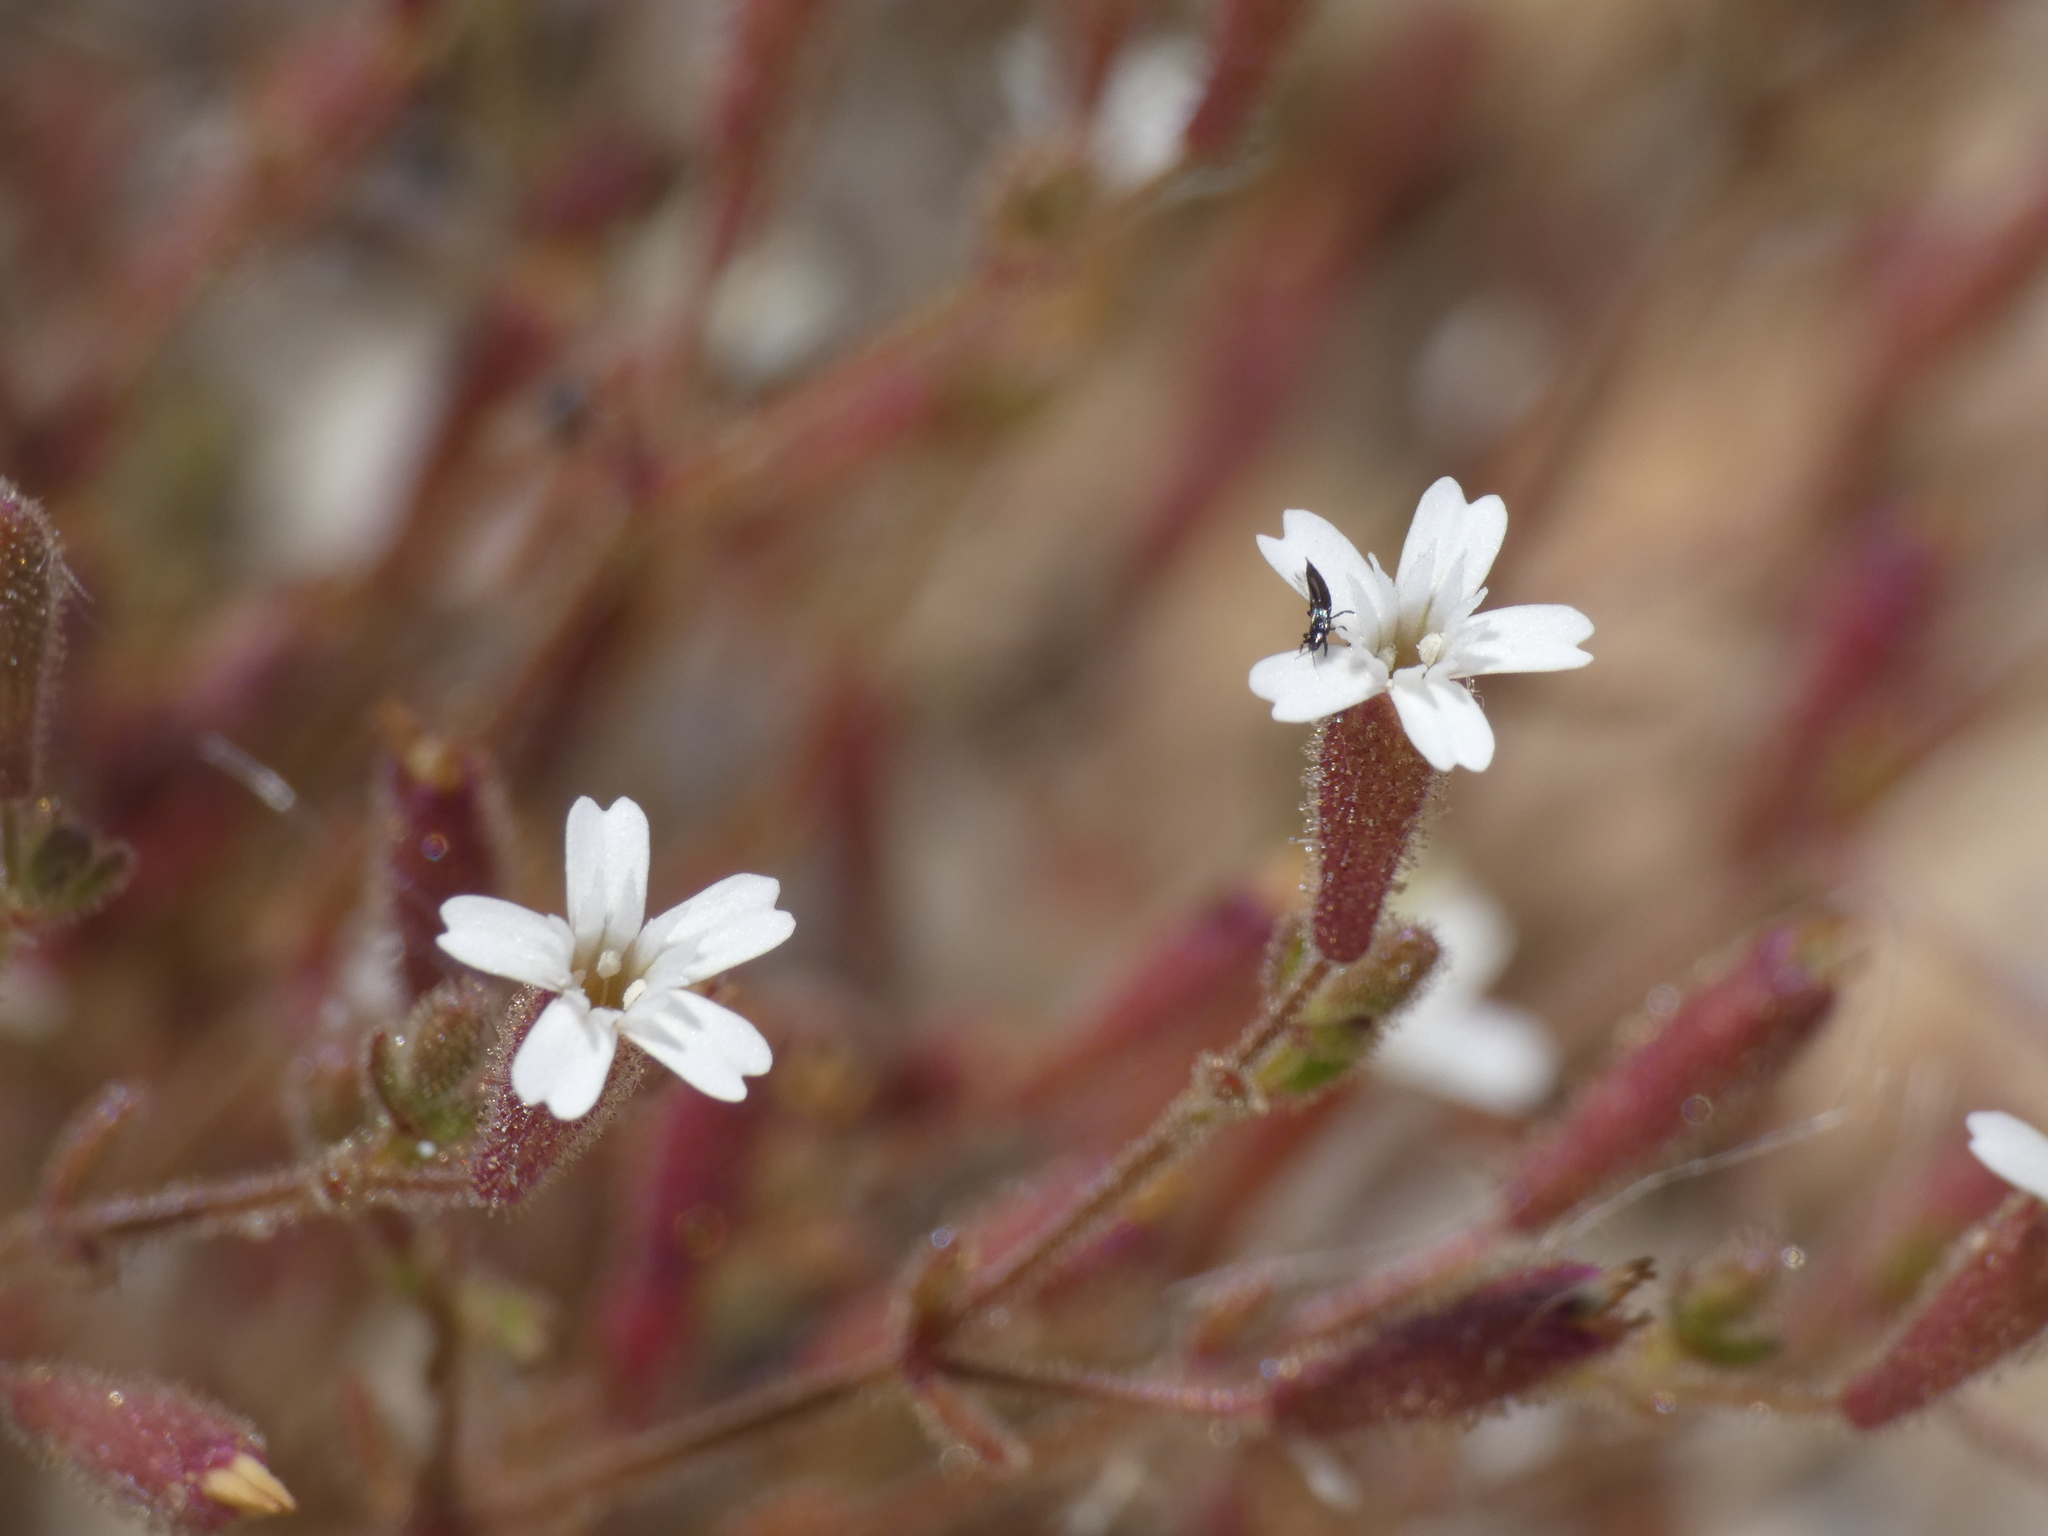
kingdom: Plantae
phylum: Tracheophyta
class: Magnoliopsida
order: Caryophyllales
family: Caryophyllaceae
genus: Silene
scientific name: Silene sedoides
